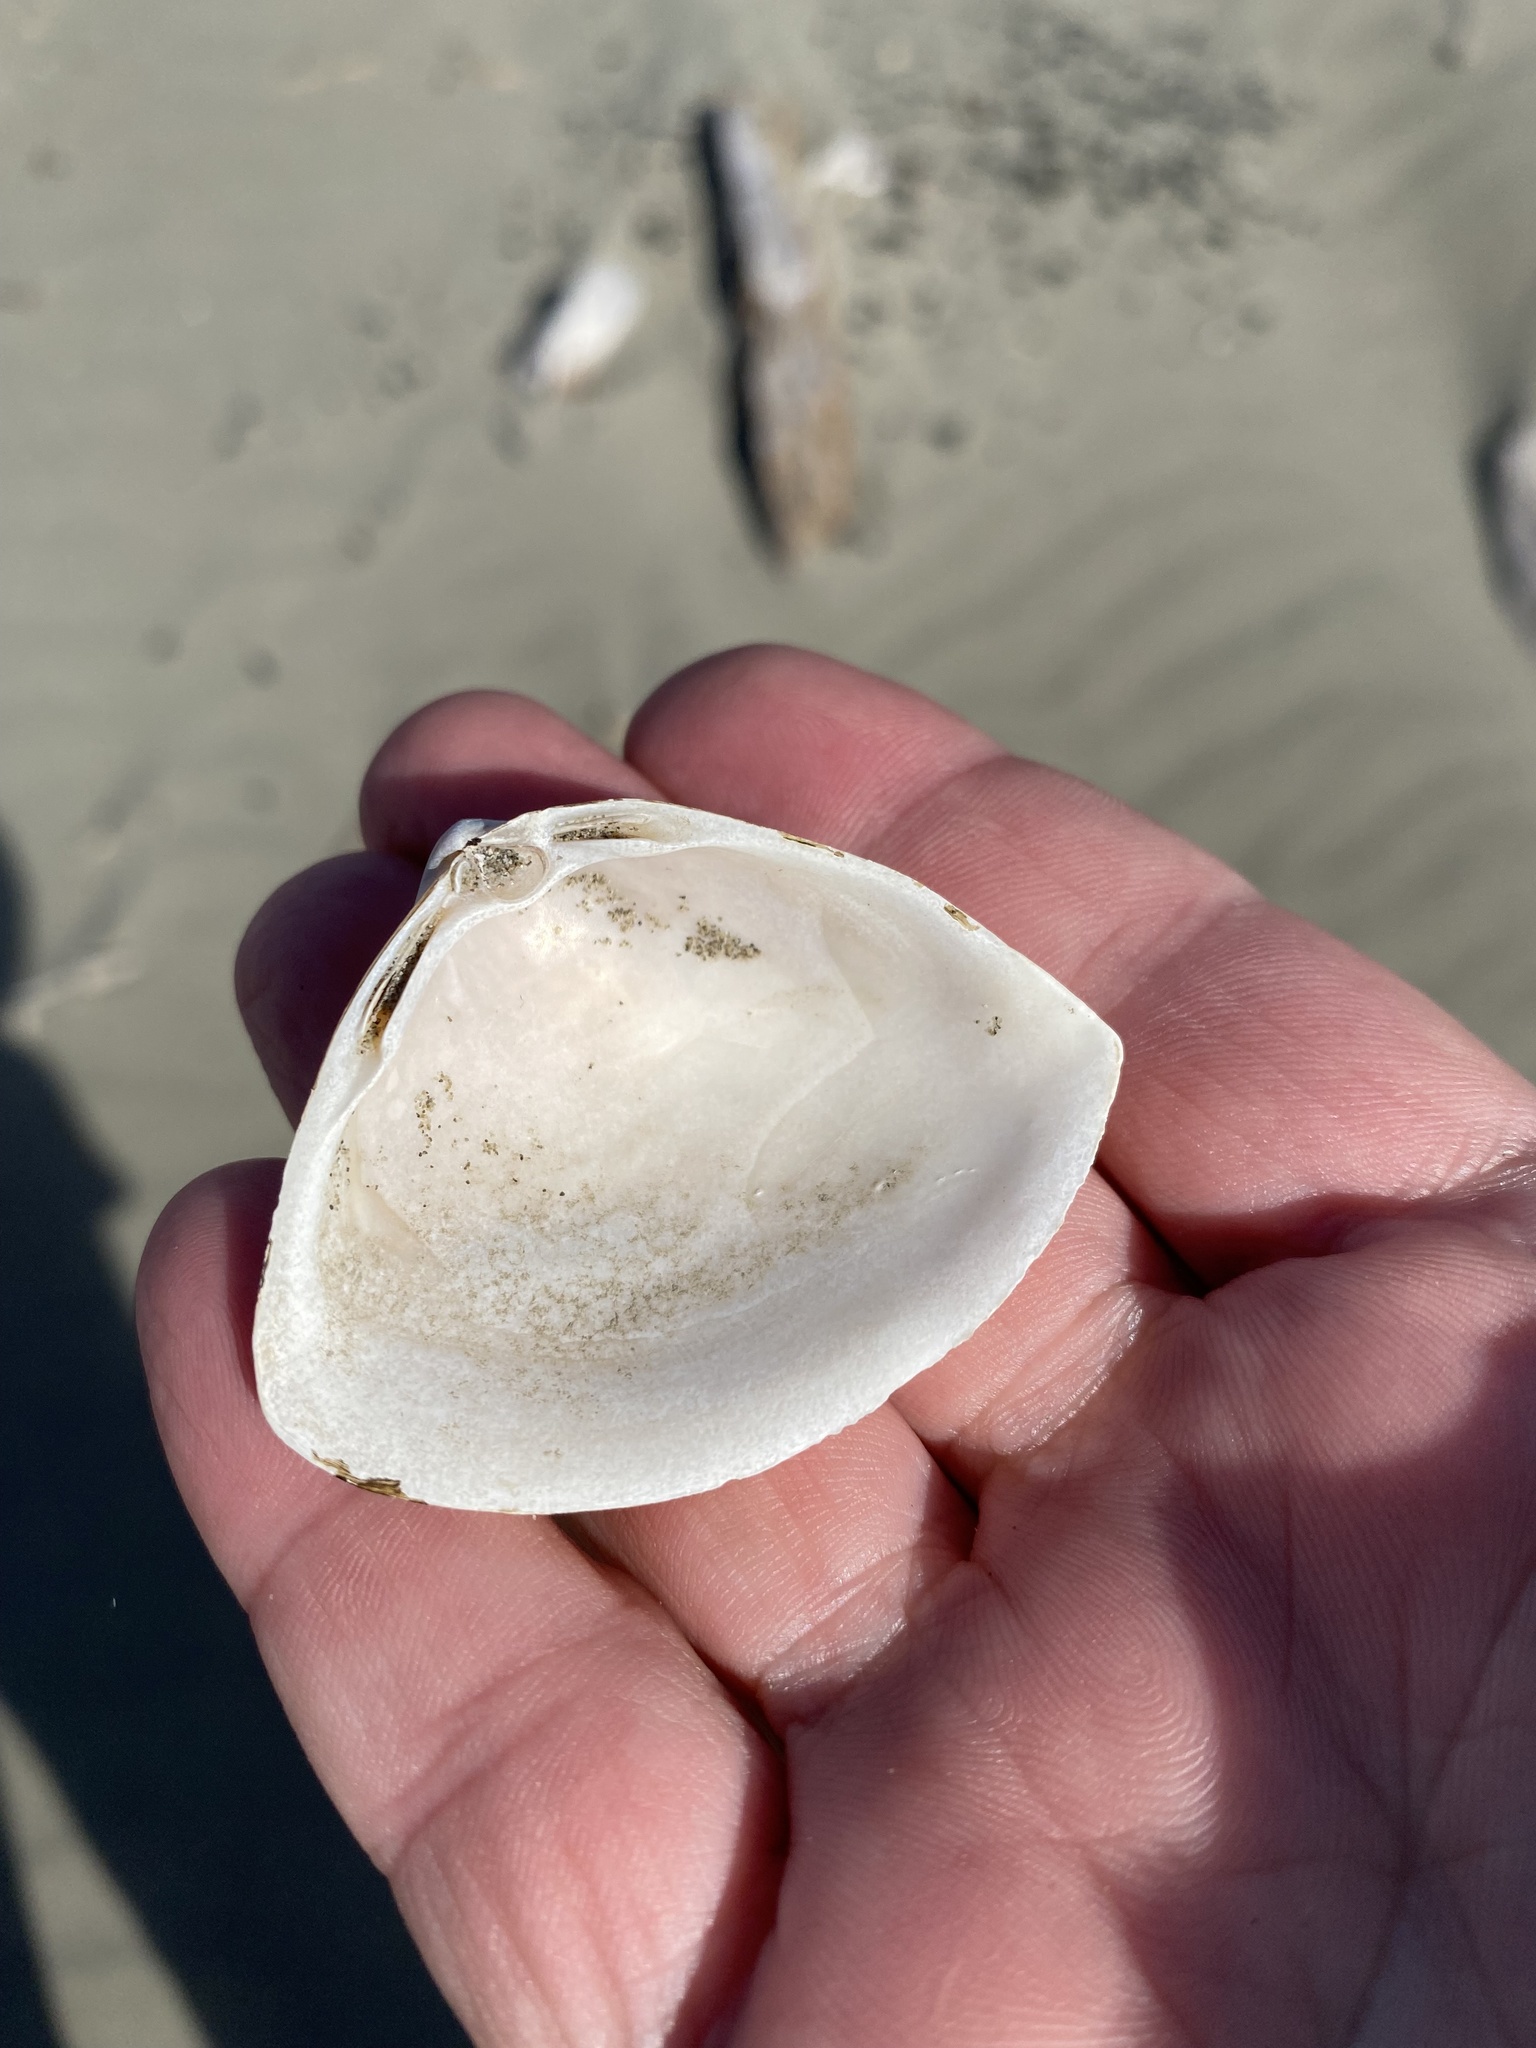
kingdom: Animalia
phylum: Mollusca
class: Bivalvia
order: Venerida
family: Mactridae
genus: Crassula
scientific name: Crassula aequilatera
